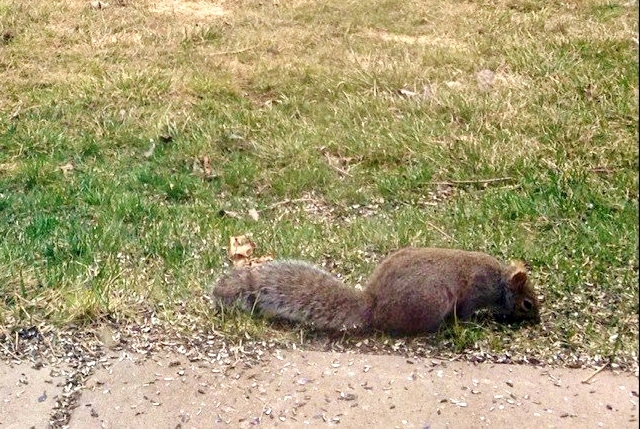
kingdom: Animalia
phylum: Chordata
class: Mammalia
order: Rodentia
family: Sciuridae
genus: Sciurus
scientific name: Sciurus carolinensis
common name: Eastern gray squirrel
